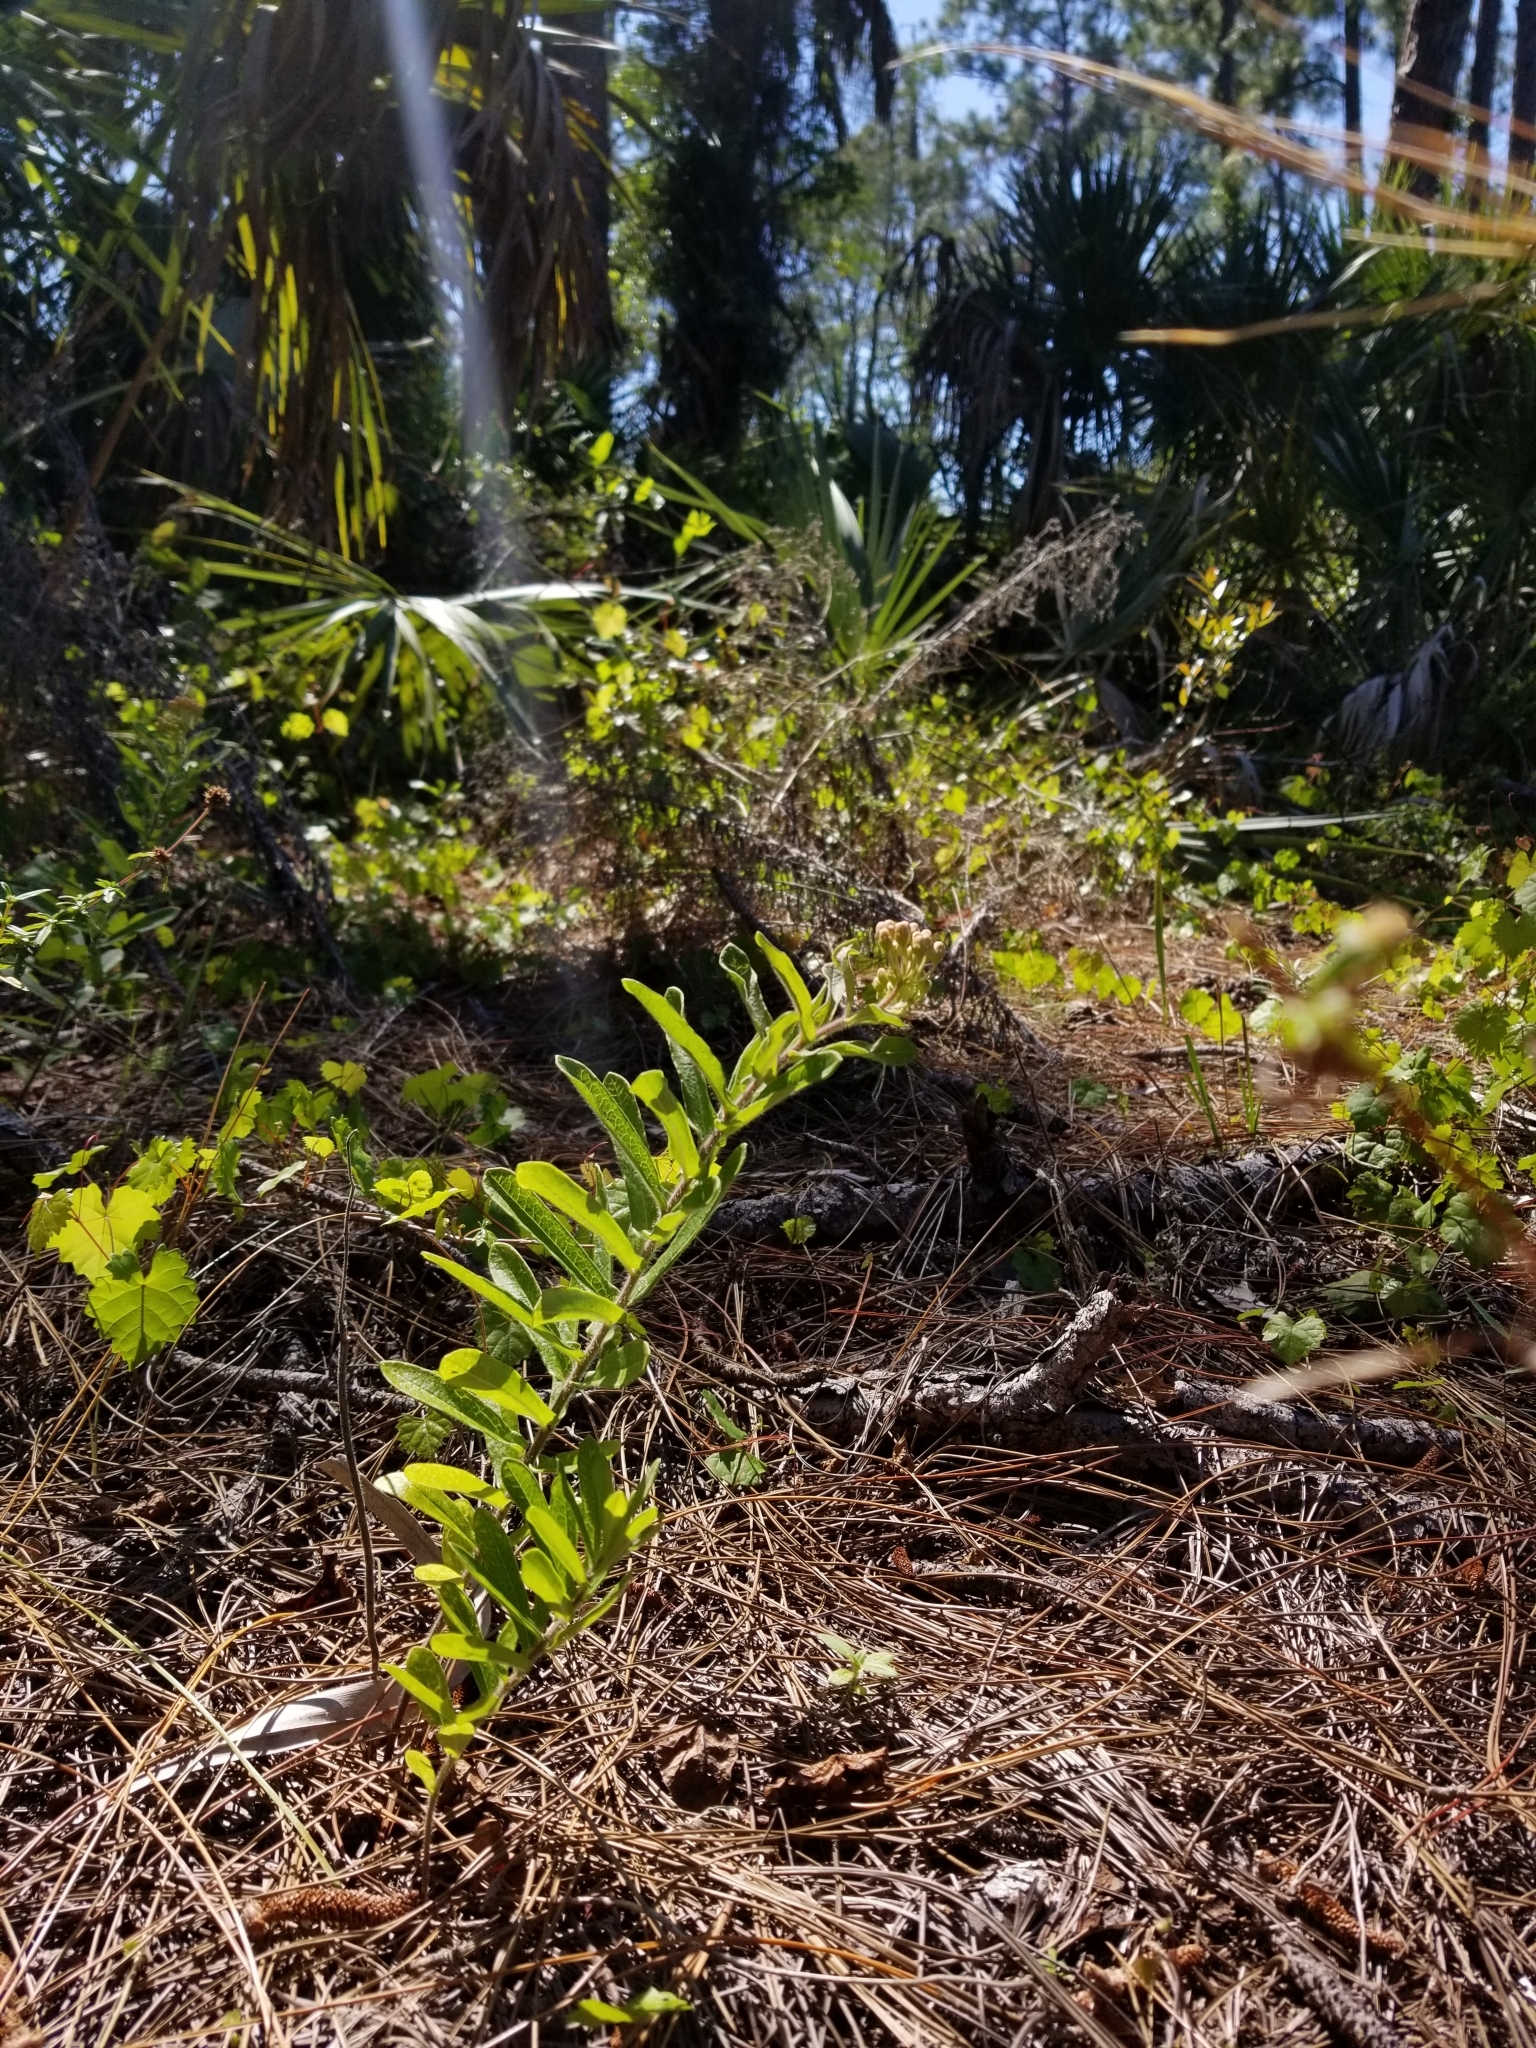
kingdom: Plantae
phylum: Tracheophyta
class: Magnoliopsida
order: Gentianales
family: Apocynaceae
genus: Asclepias
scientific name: Asclepias tuberosa
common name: Butterfly milkweed
